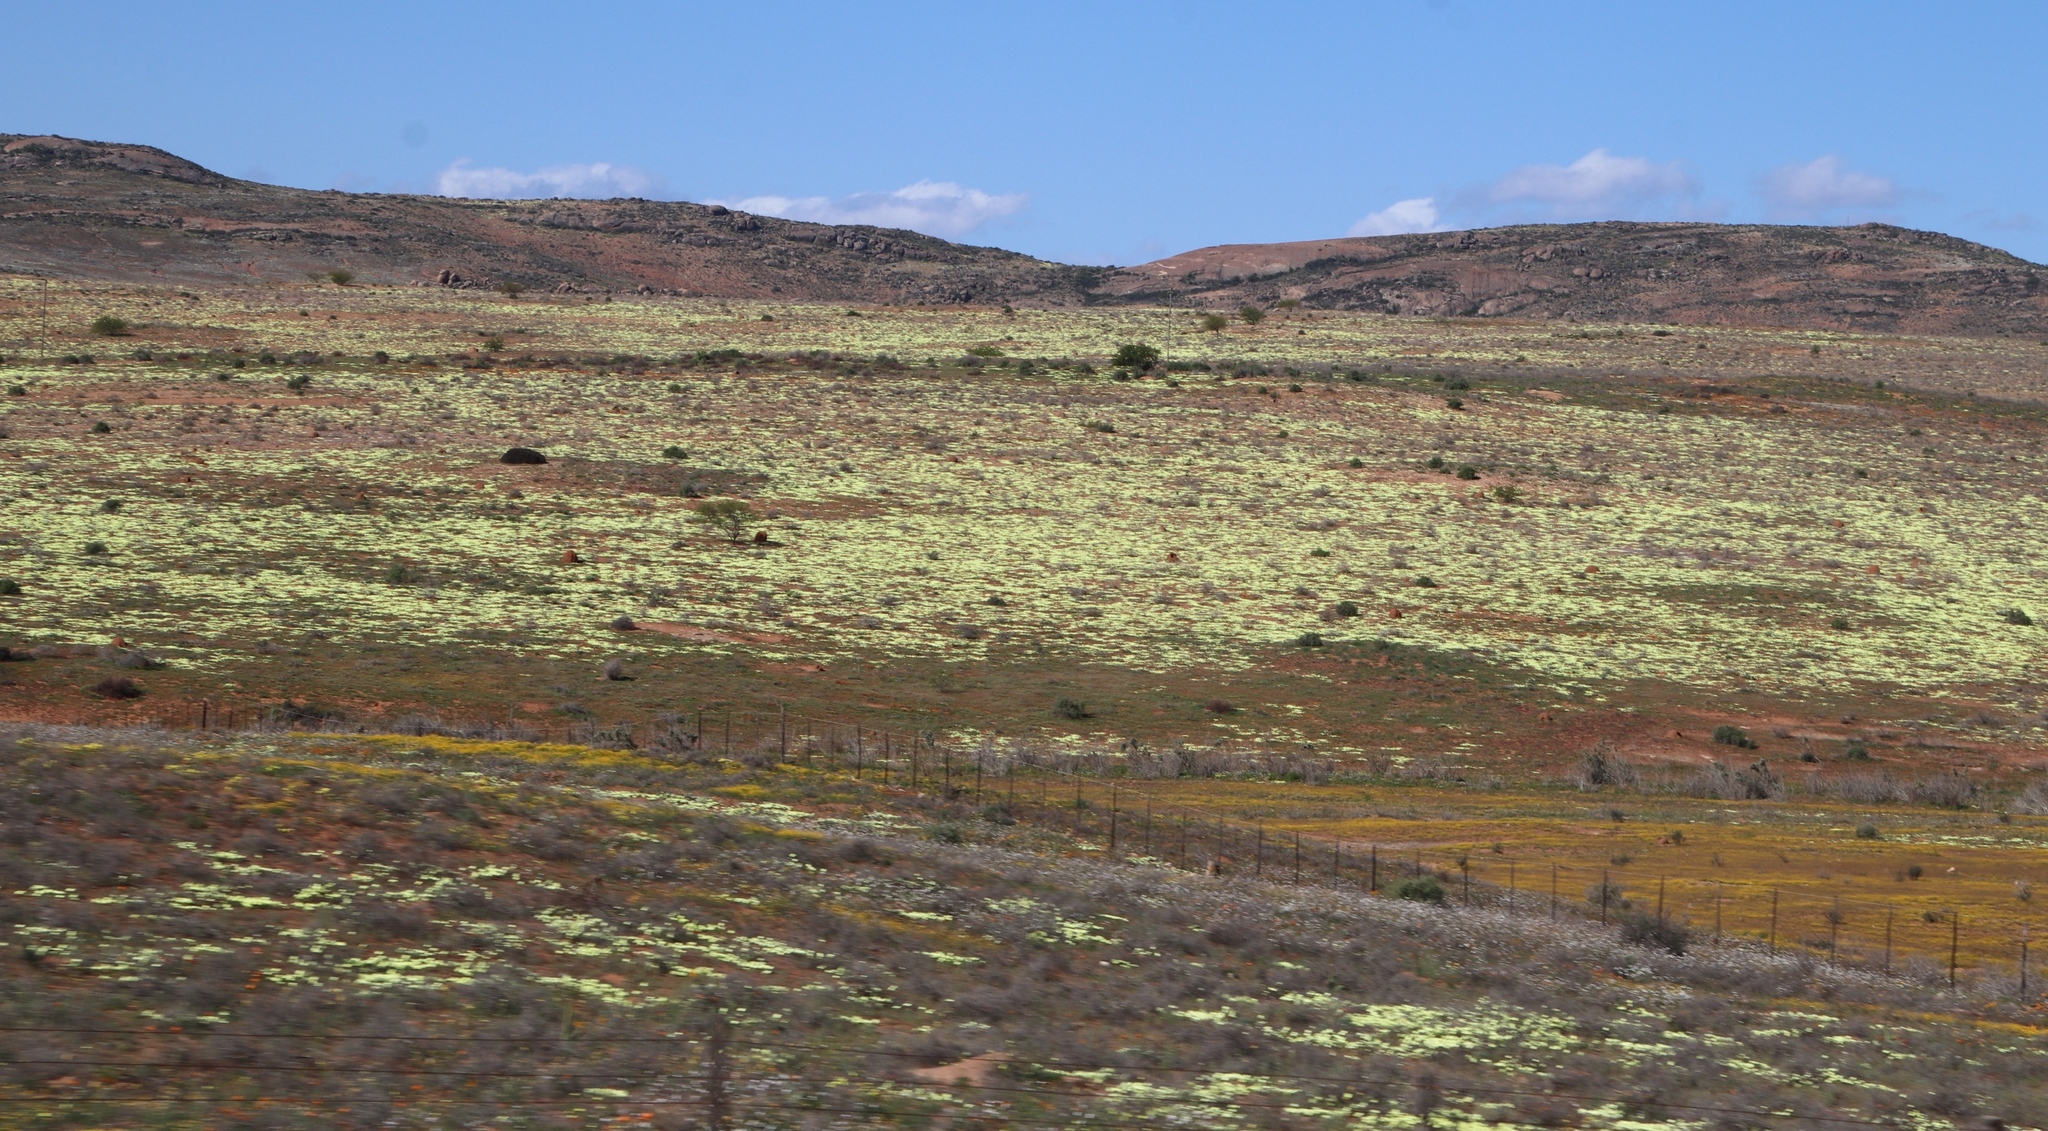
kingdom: Plantae
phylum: Tracheophyta
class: Magnoliopsida
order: Malvales
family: Neuradaceae
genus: Grielum
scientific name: Grielum humifusum
